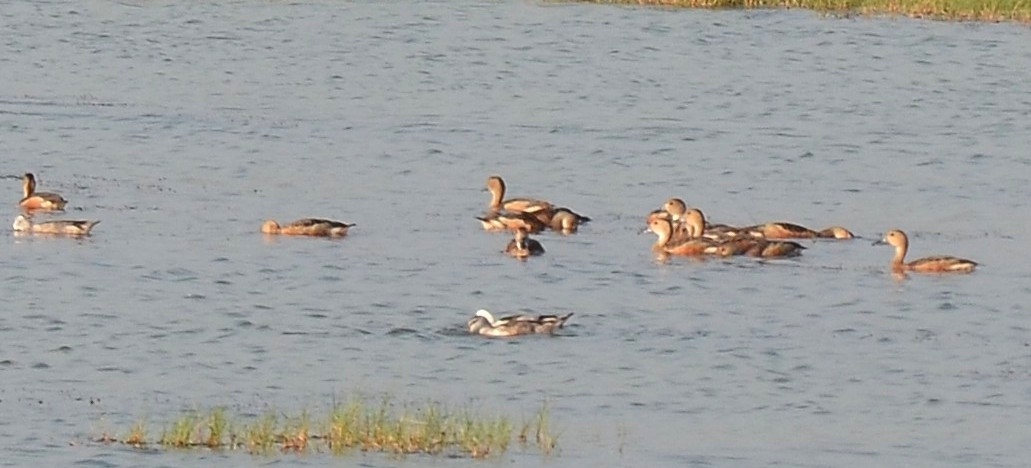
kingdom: Animalia
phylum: Chordata
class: Aves
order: Anseriformes
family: Anatidae
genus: Dendrocygna
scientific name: Dendrocygna javanica
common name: Lesser whistling-duck
